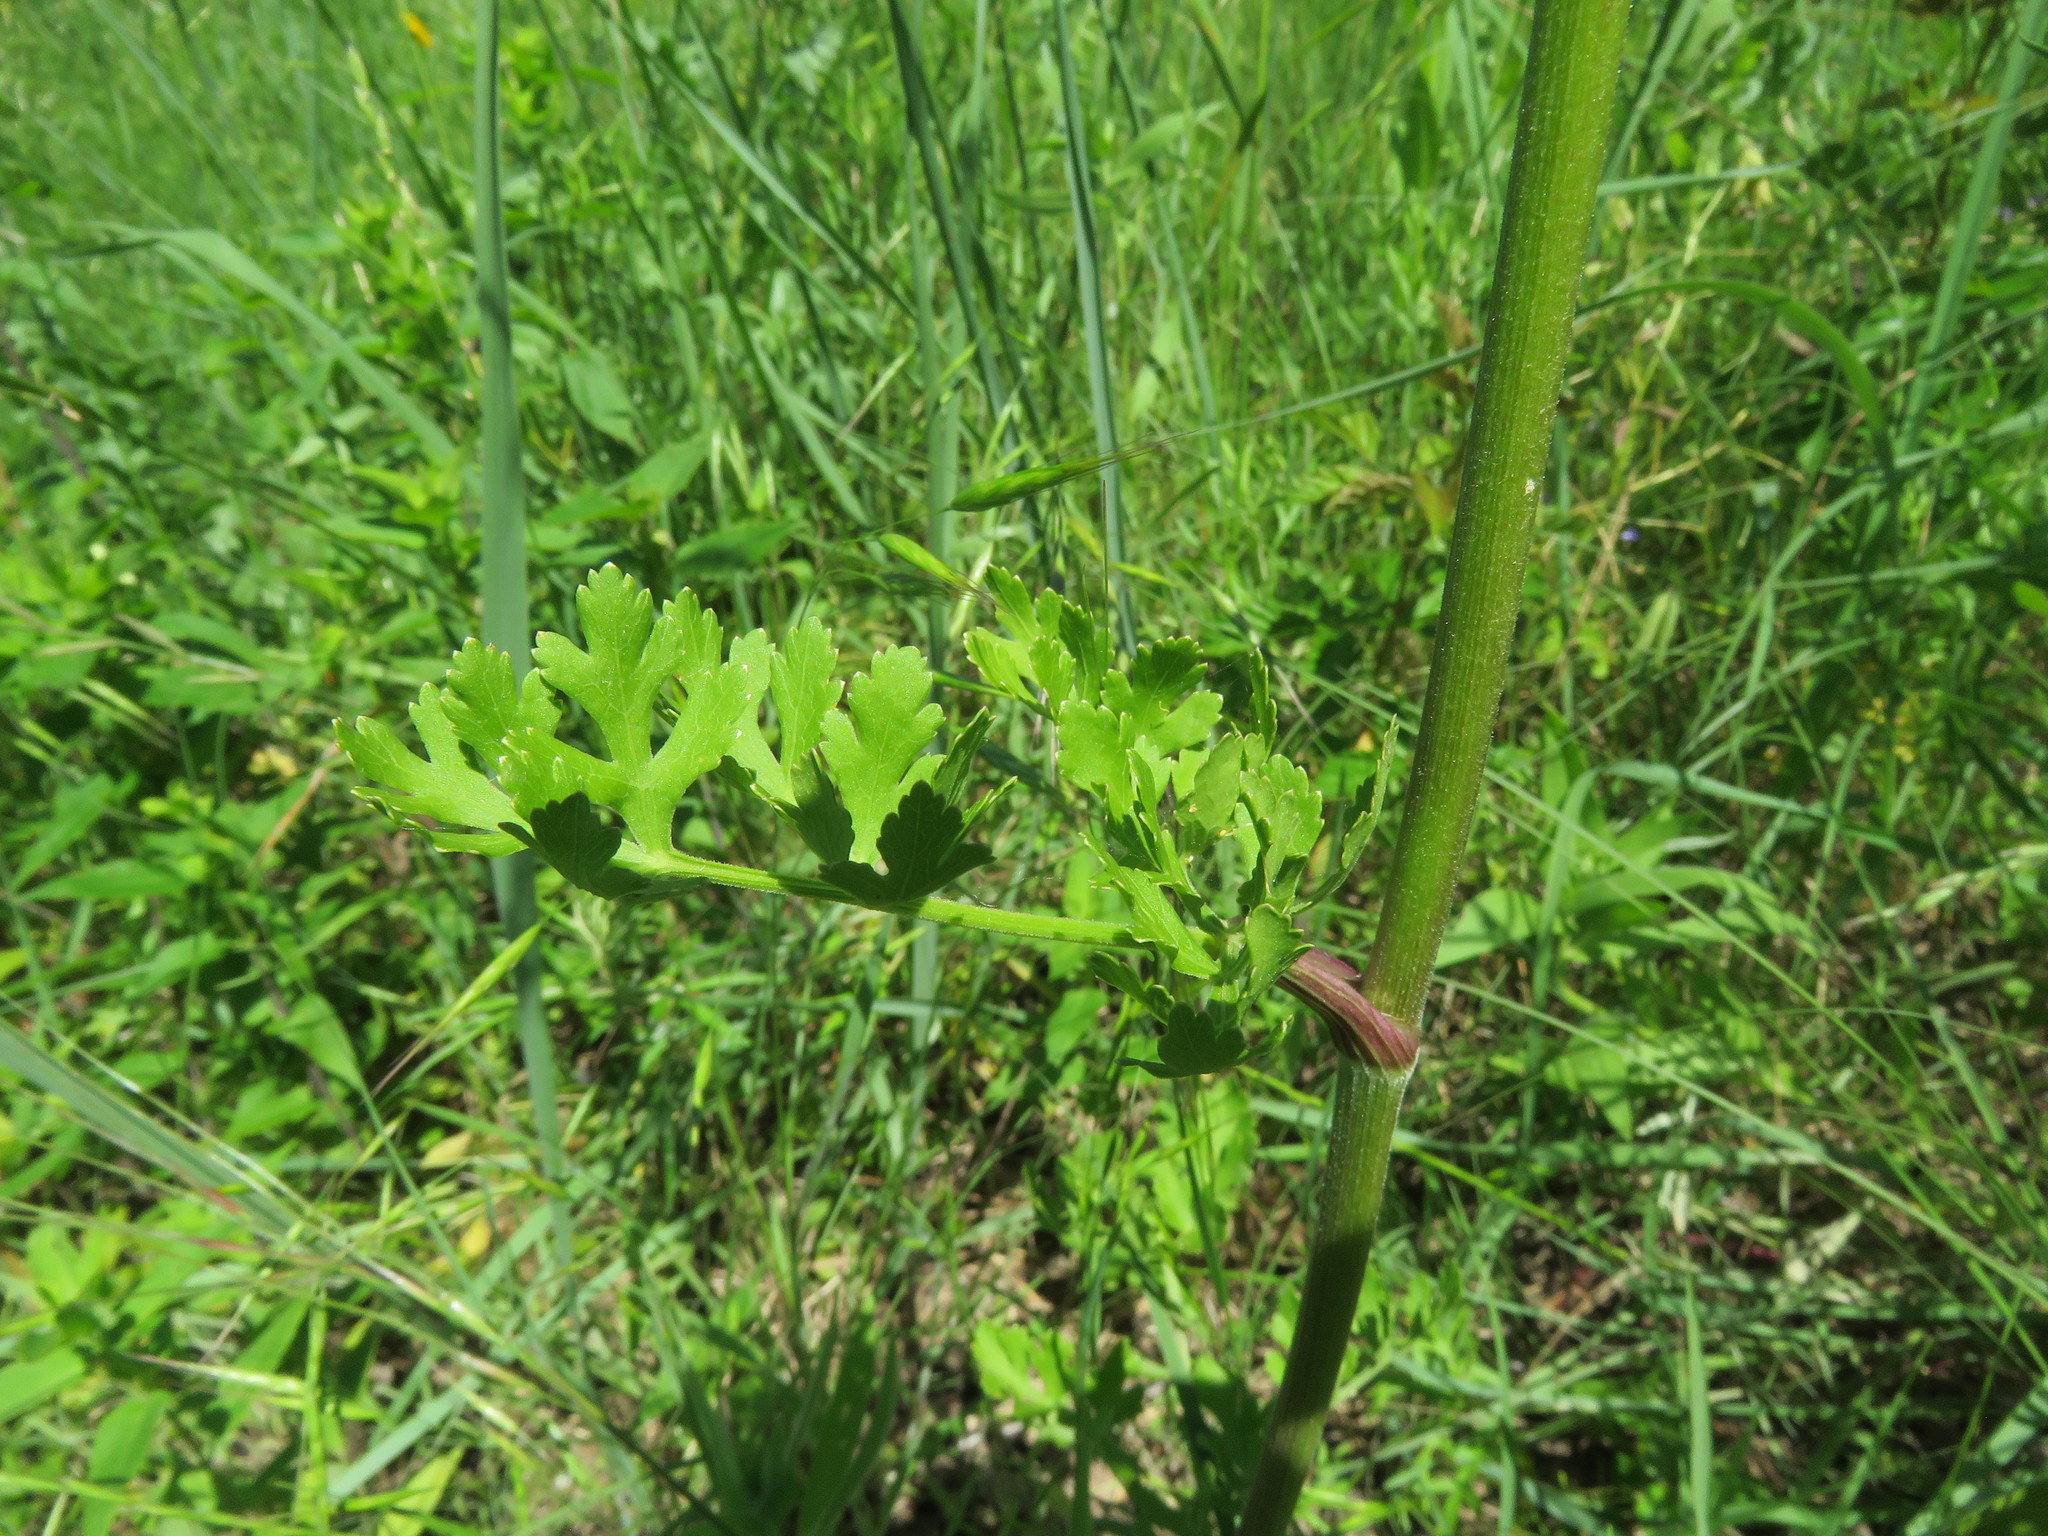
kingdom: Plantae
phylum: Tracheophyta
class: Magnoliopsida
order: Apiales
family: Apiaceae
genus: Polytaenia
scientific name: Polytaenia texana
